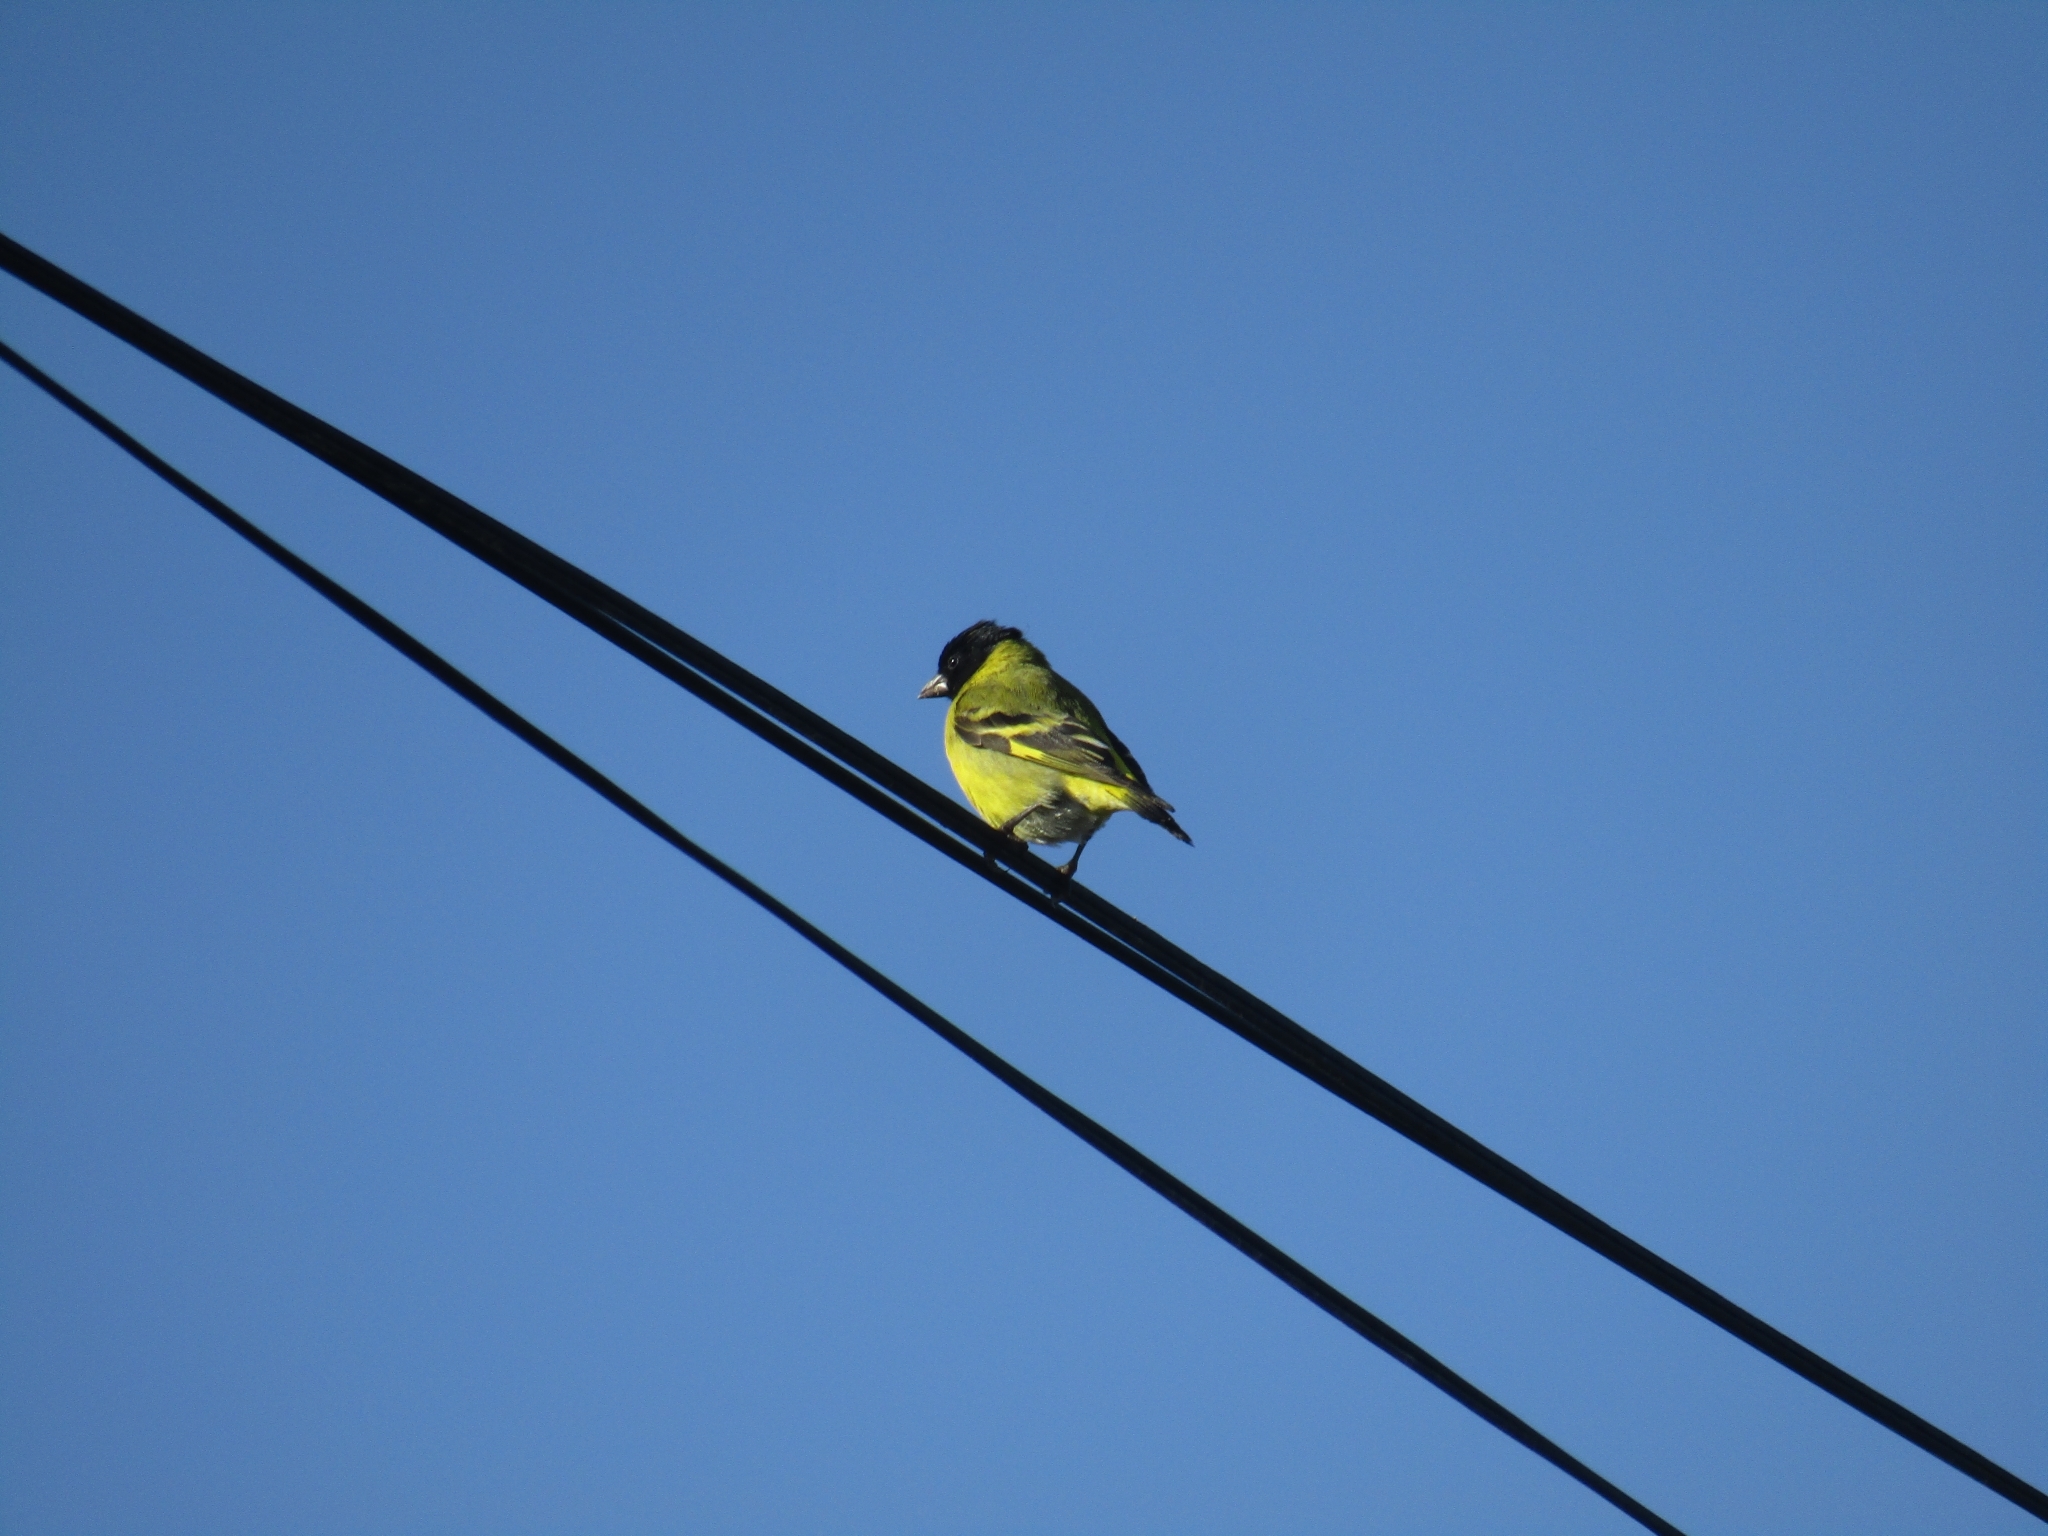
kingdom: Animalia
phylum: Chordata
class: Aves
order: Passeriformes
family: Fringillidae
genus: Spinus
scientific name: Spinus magellanicus
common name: Hooded siskin
